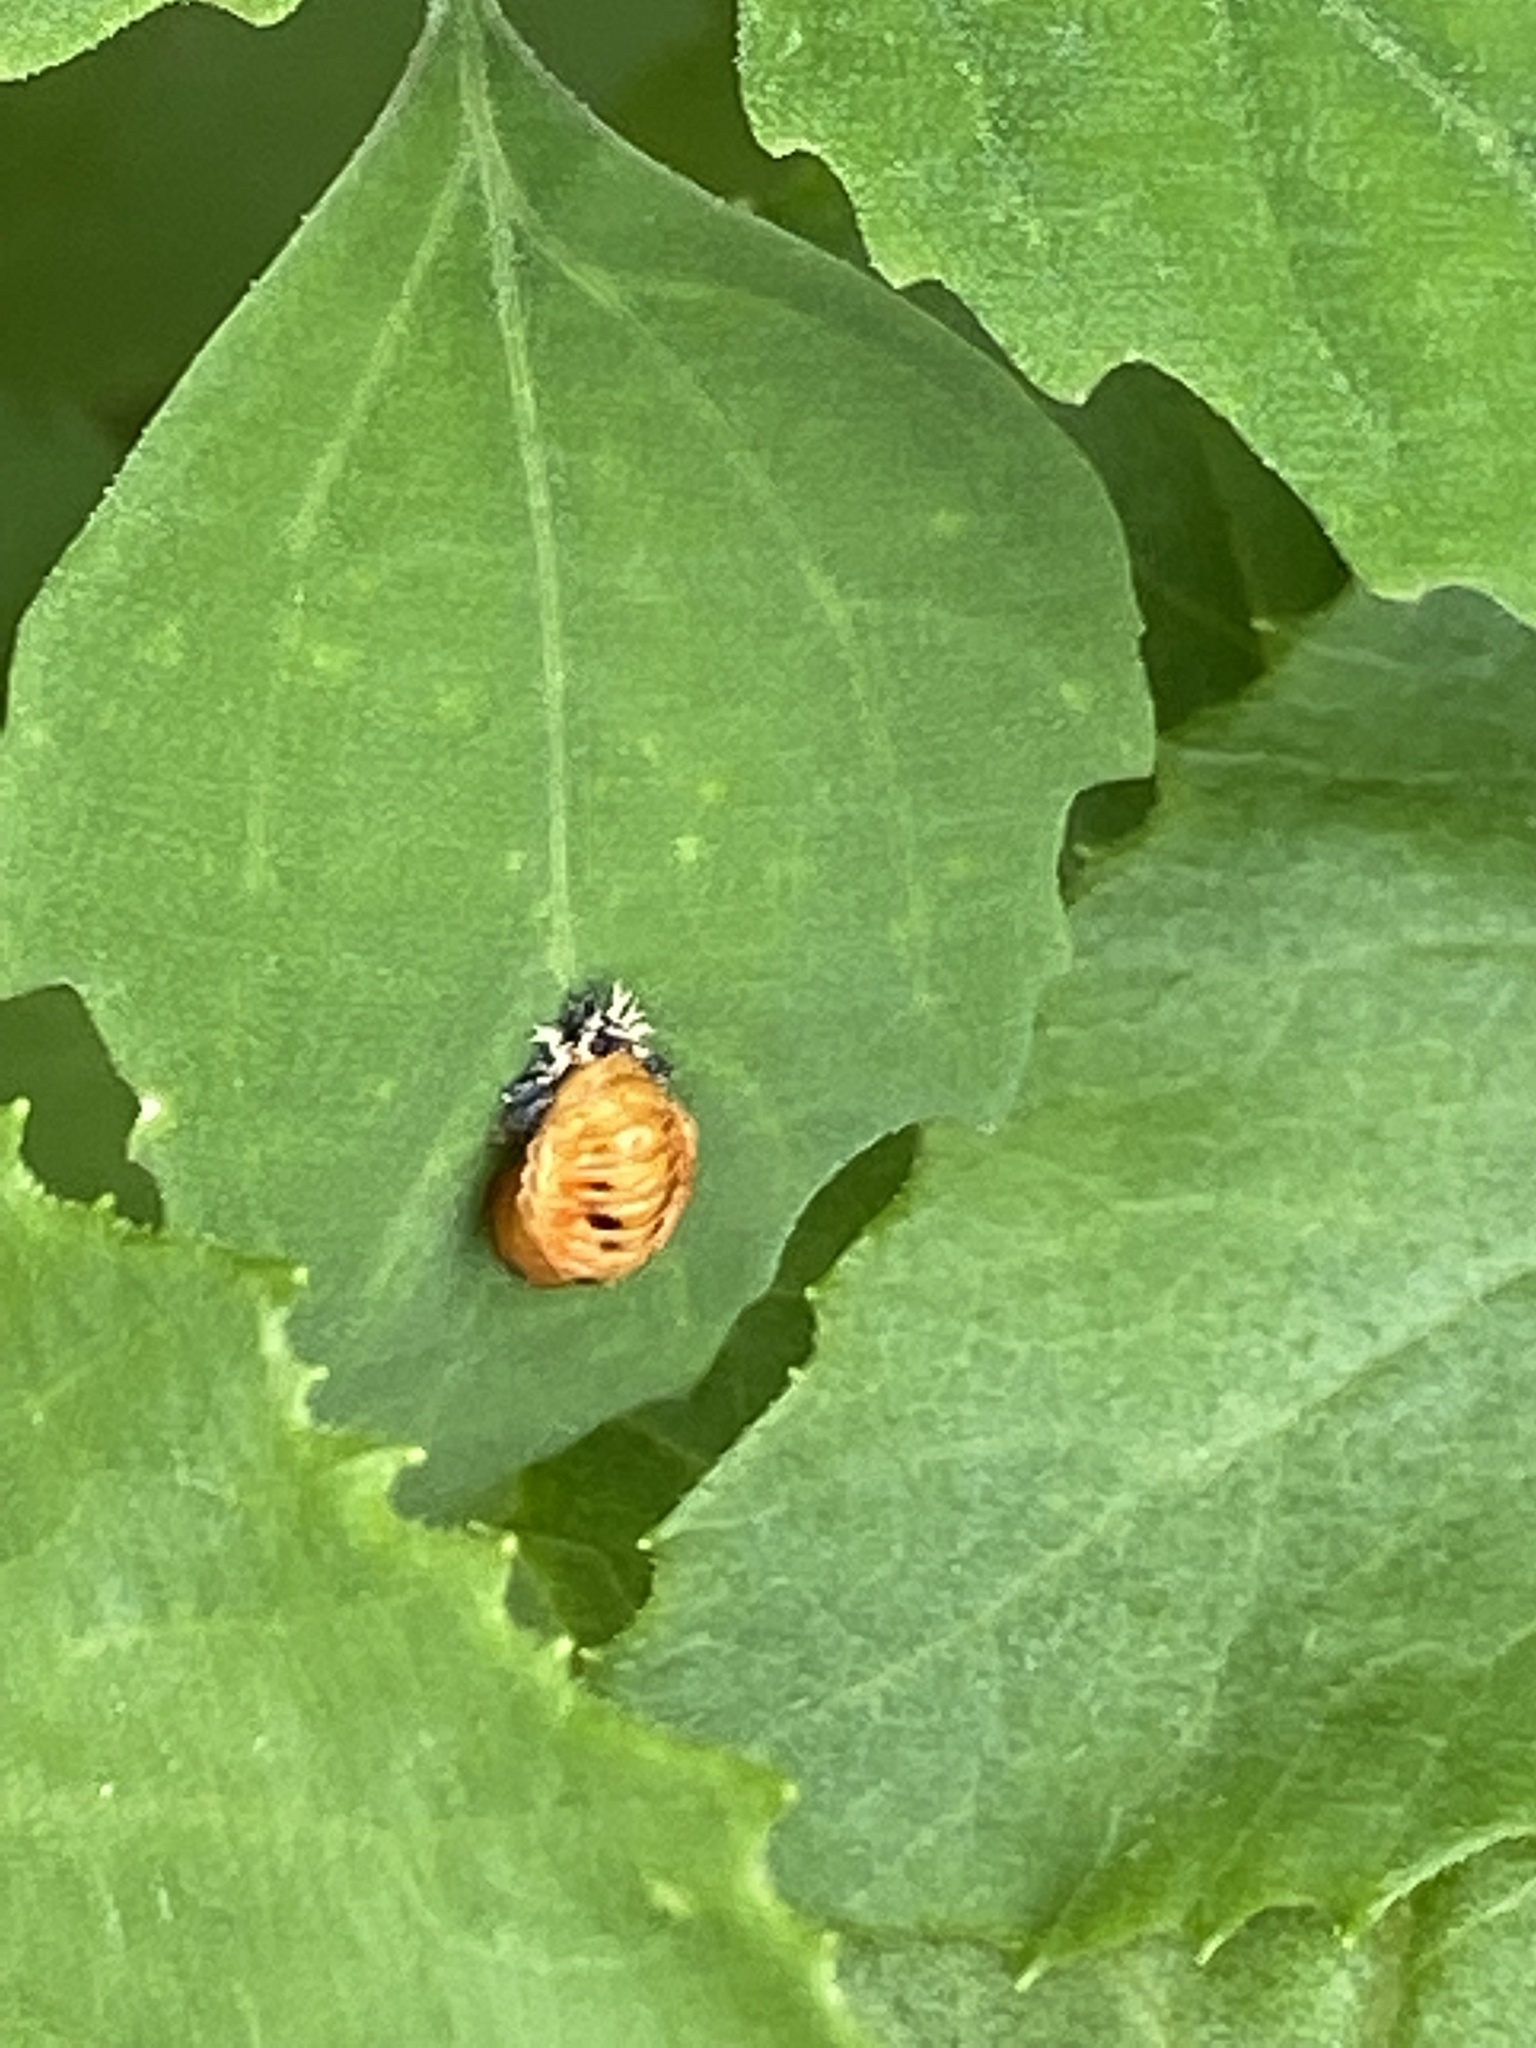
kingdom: Animalia
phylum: Arthropoda
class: Insecta
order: Coleoptera
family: Coccinellidae
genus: Harmonia
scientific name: Harmonia axyridis
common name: Harlequin ladybird
